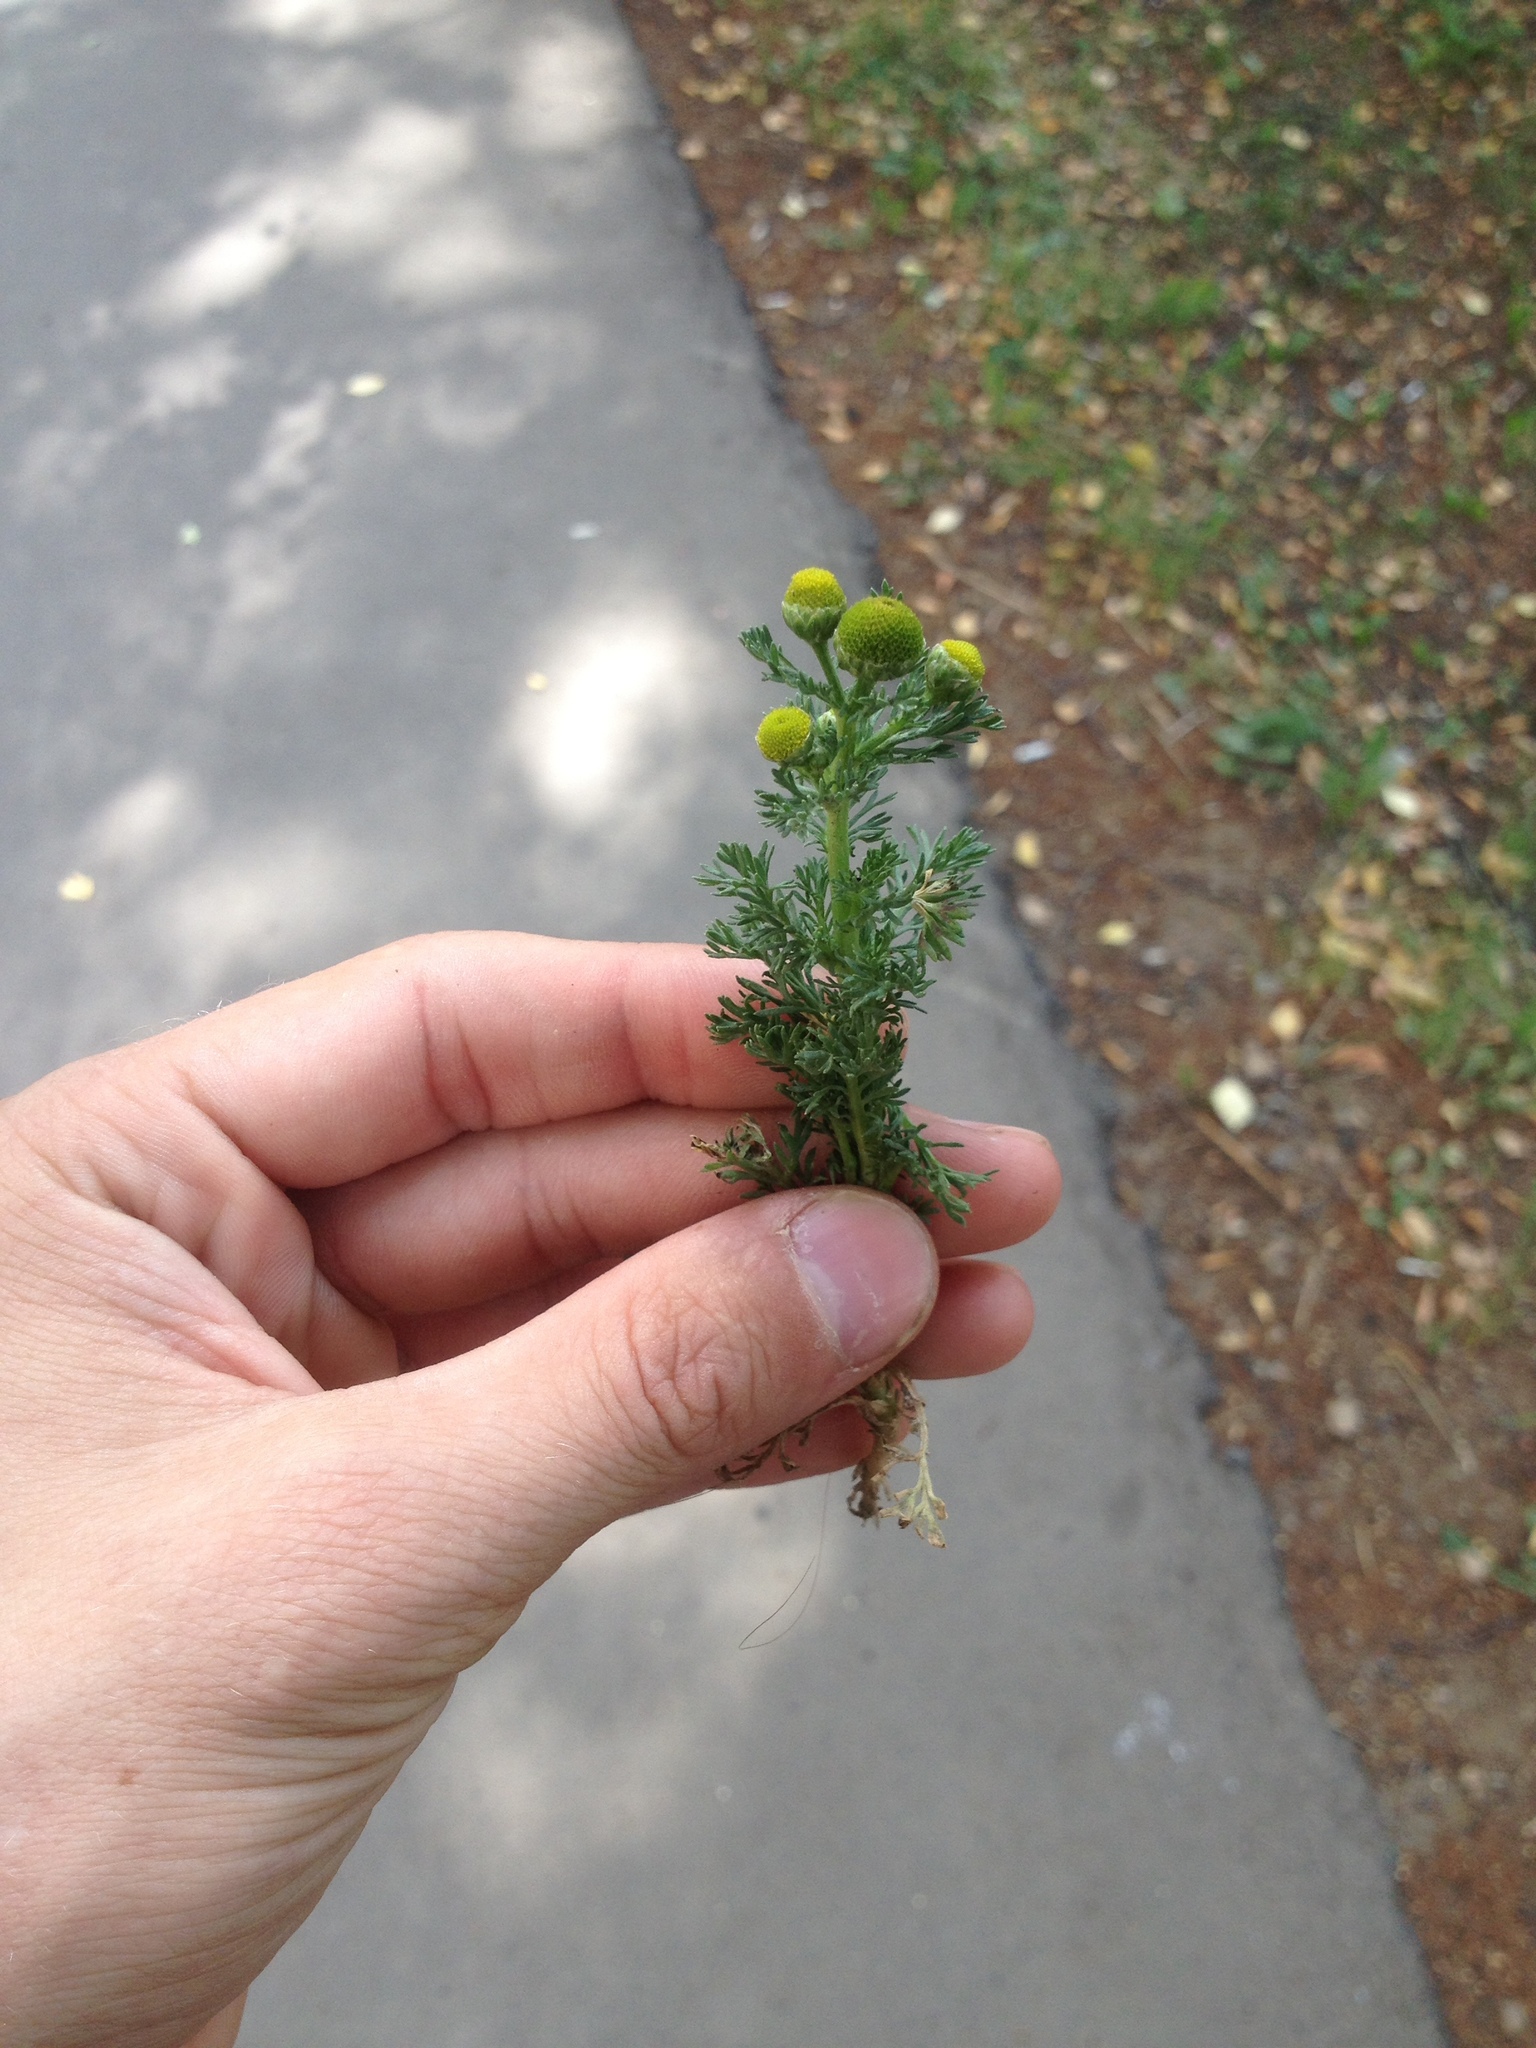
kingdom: Plantae
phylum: Tracheophyta
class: Magnoliopsida
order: Asterales
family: Asteraceae
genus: Matricaria
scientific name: Matricaria discoidea
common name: Disc mayweed
